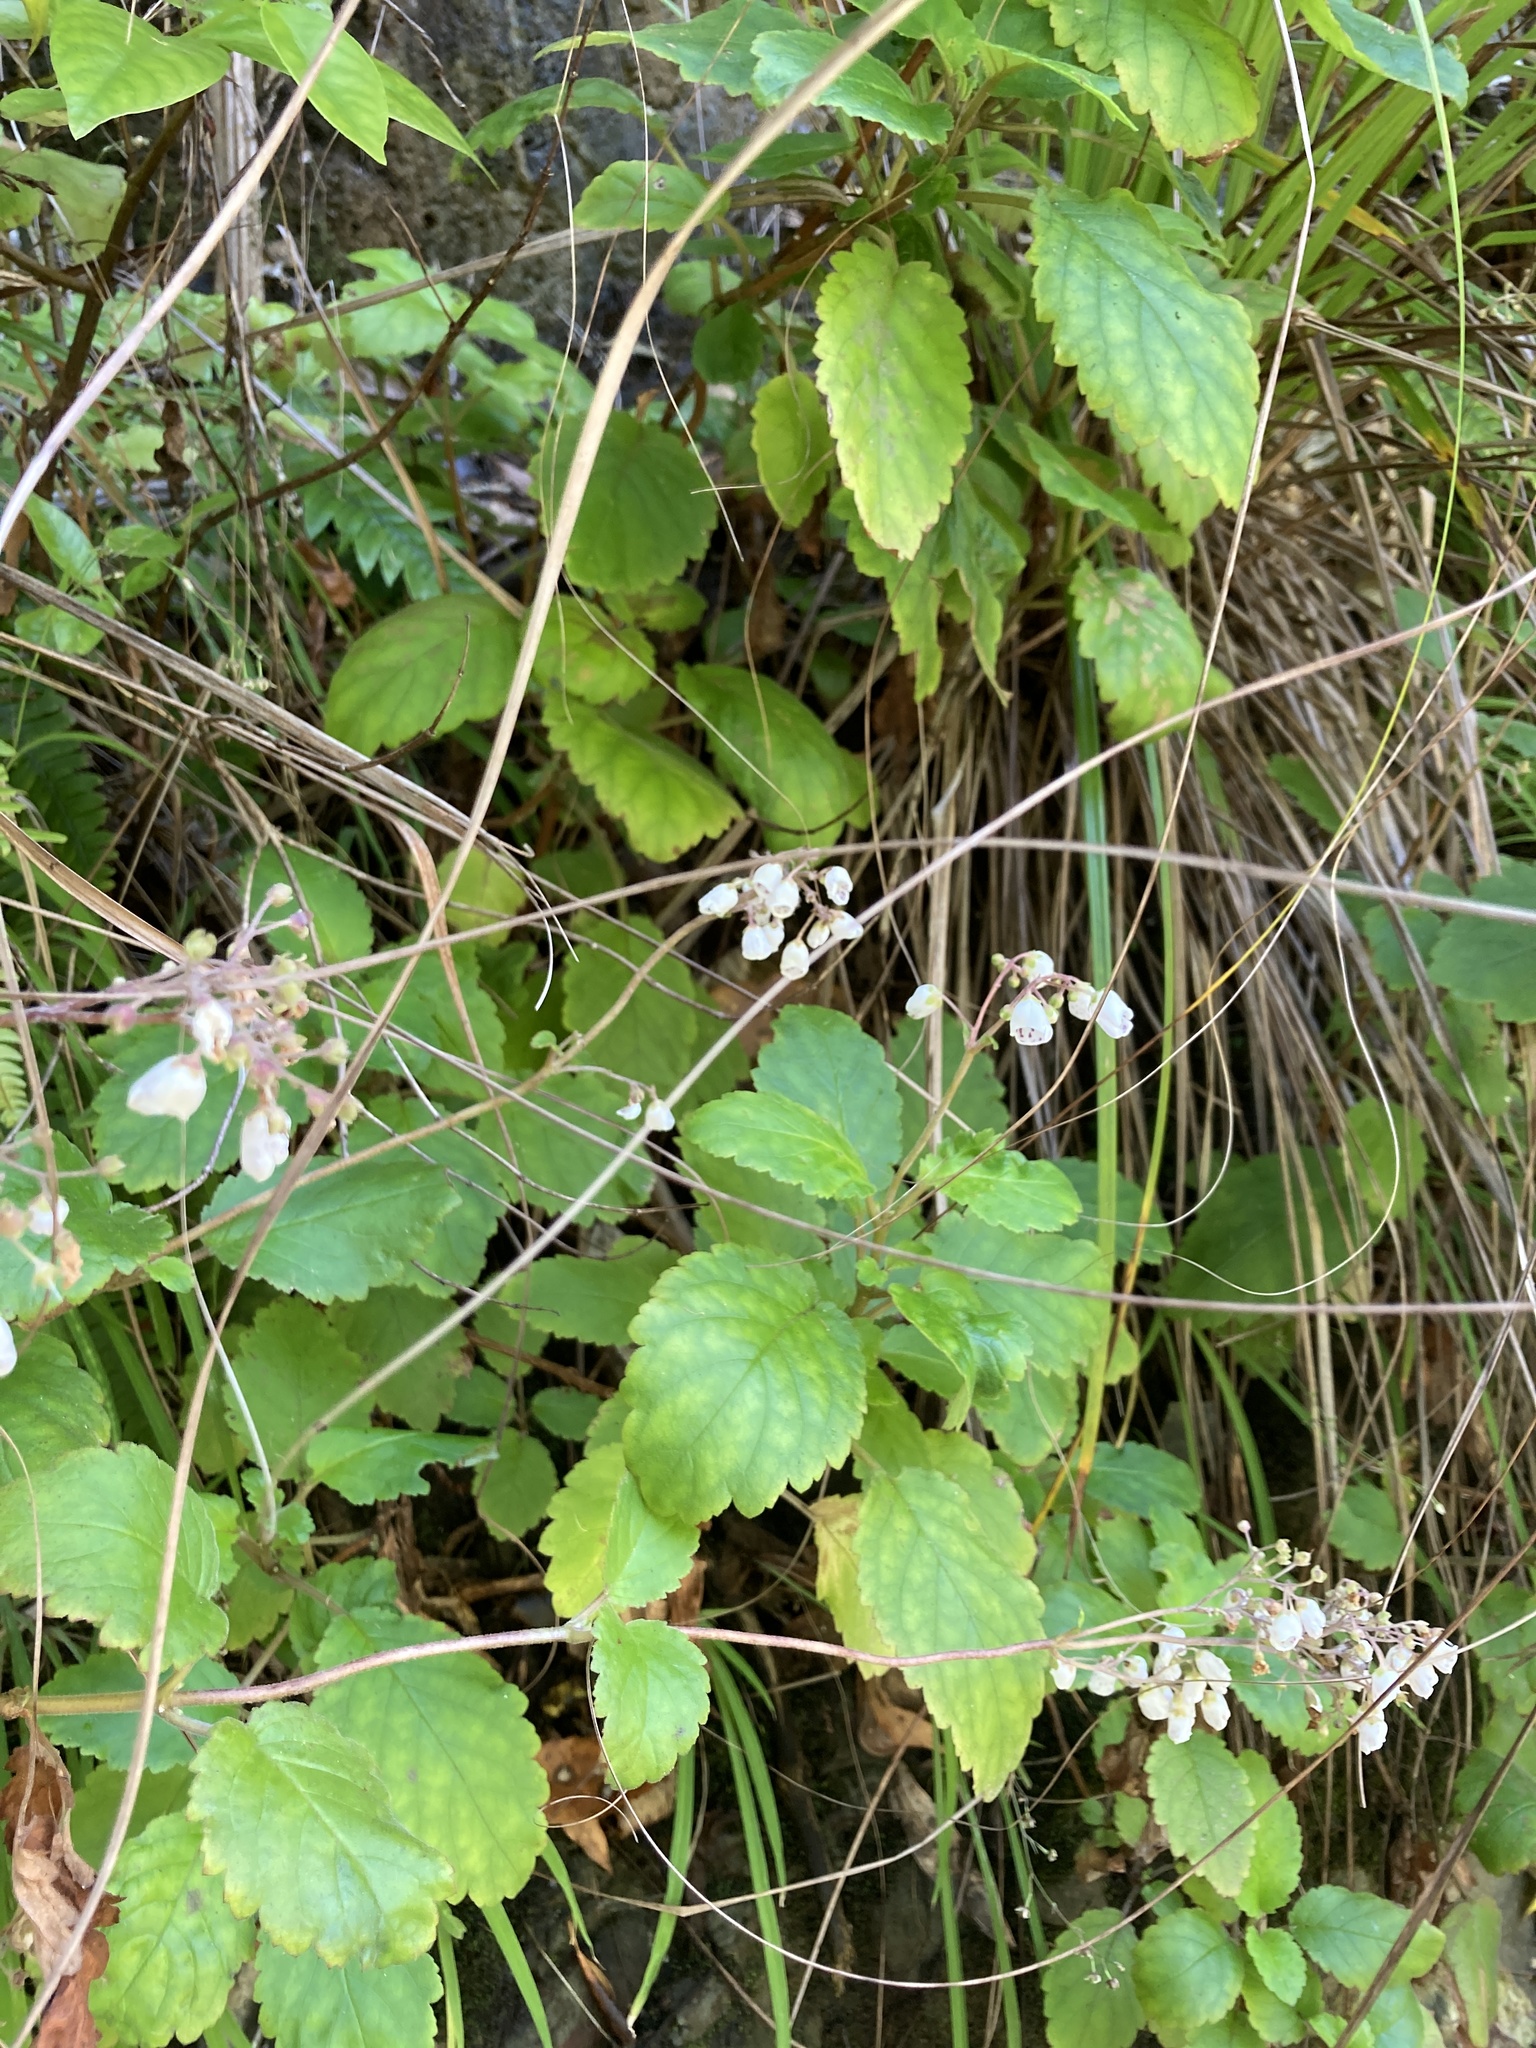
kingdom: Plantae
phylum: Tracheophyta
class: Magnoliopsida
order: Lamiales
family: Calceolariaceae
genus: Jovellana
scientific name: Jovellana sinclairii
